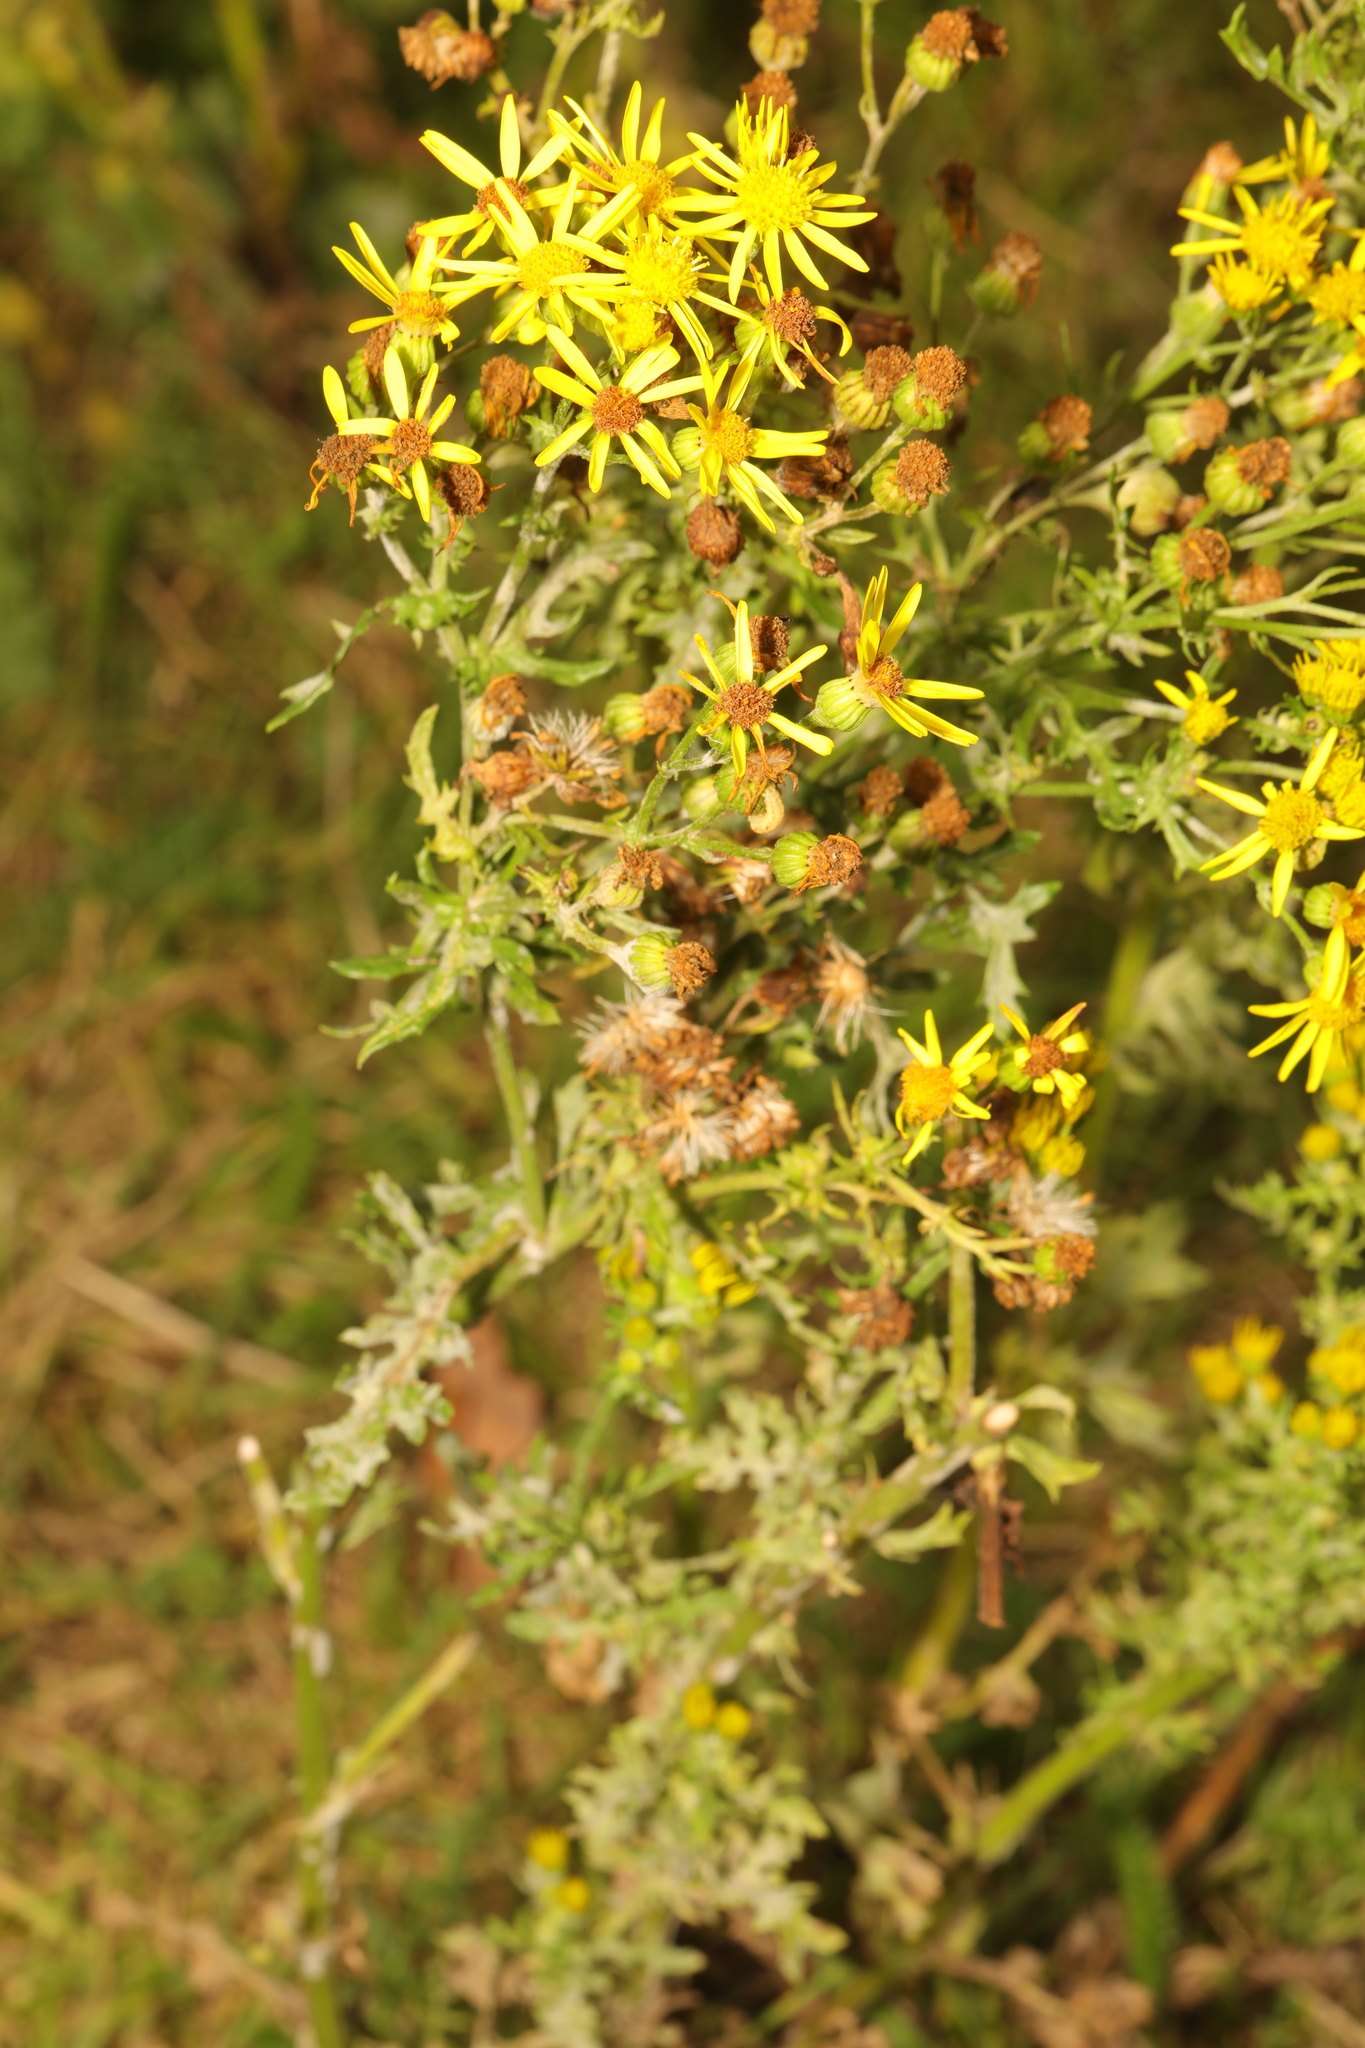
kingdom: Plantae
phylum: Tracheophyta
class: Magnoliopsida
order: Asterales
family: Asteraceae
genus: Jacobaea
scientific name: Jacobaea vulgaris
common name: Stinking willie
